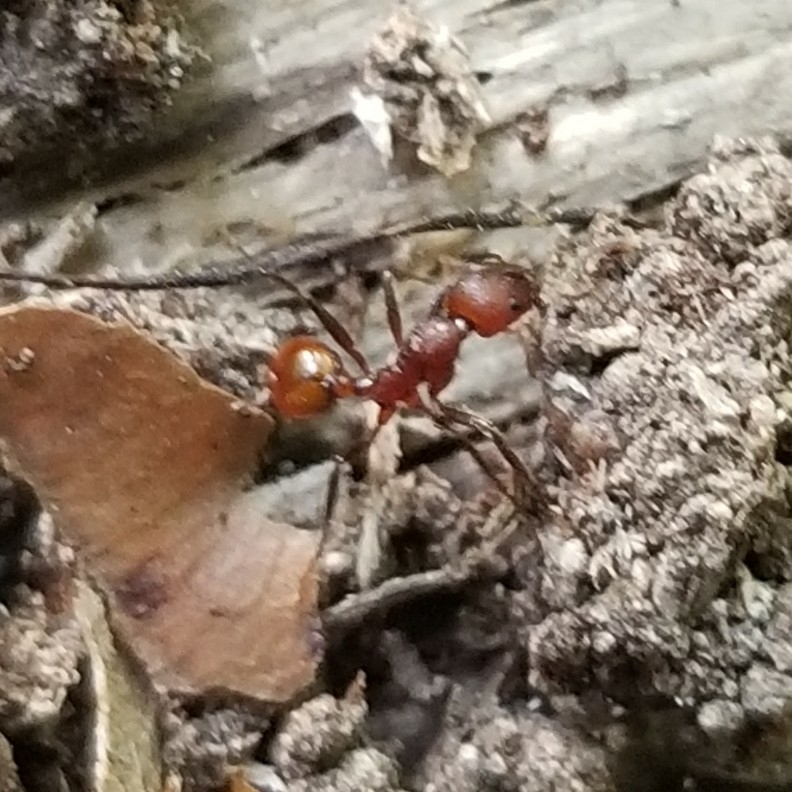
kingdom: Animalia
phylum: Arthropoda
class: Insecta
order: Hymenoptera
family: Formicidae
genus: Aphaenogaster
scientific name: Aphaenogaster tennesseensis
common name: Tennessee thread-waisted ant
